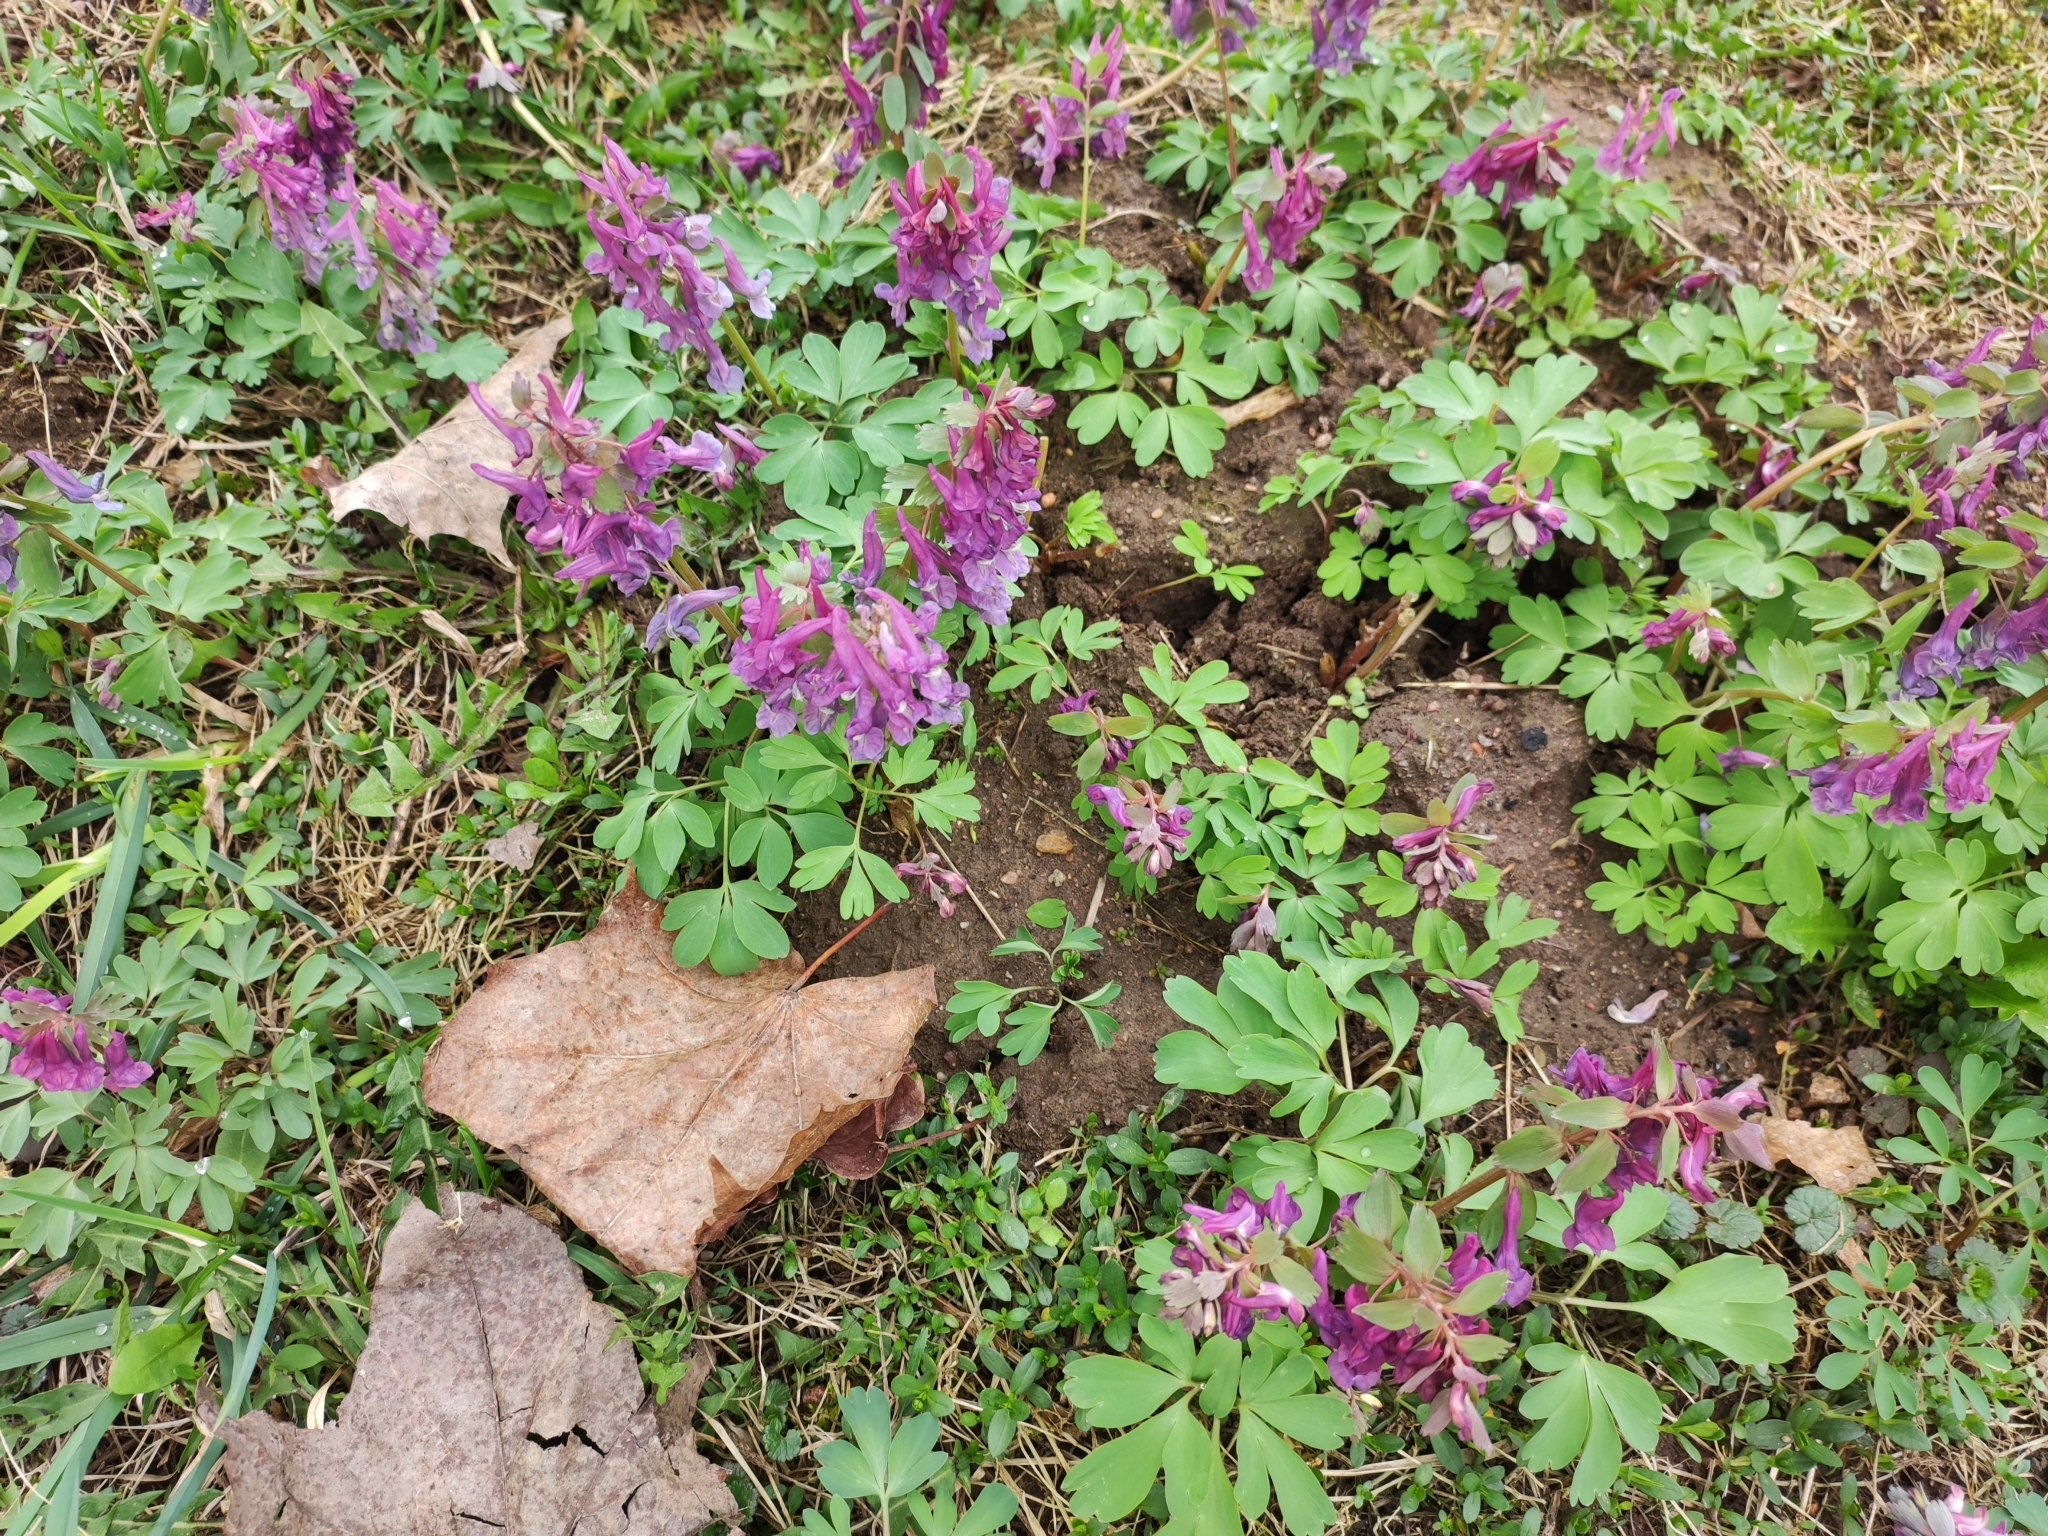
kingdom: Plantae
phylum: Tracheophyta
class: Magnoliopsida
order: Ranunculales
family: Papaveraceae
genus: Corydalis
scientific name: Corydalis solida
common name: Bird-in-a-bush
